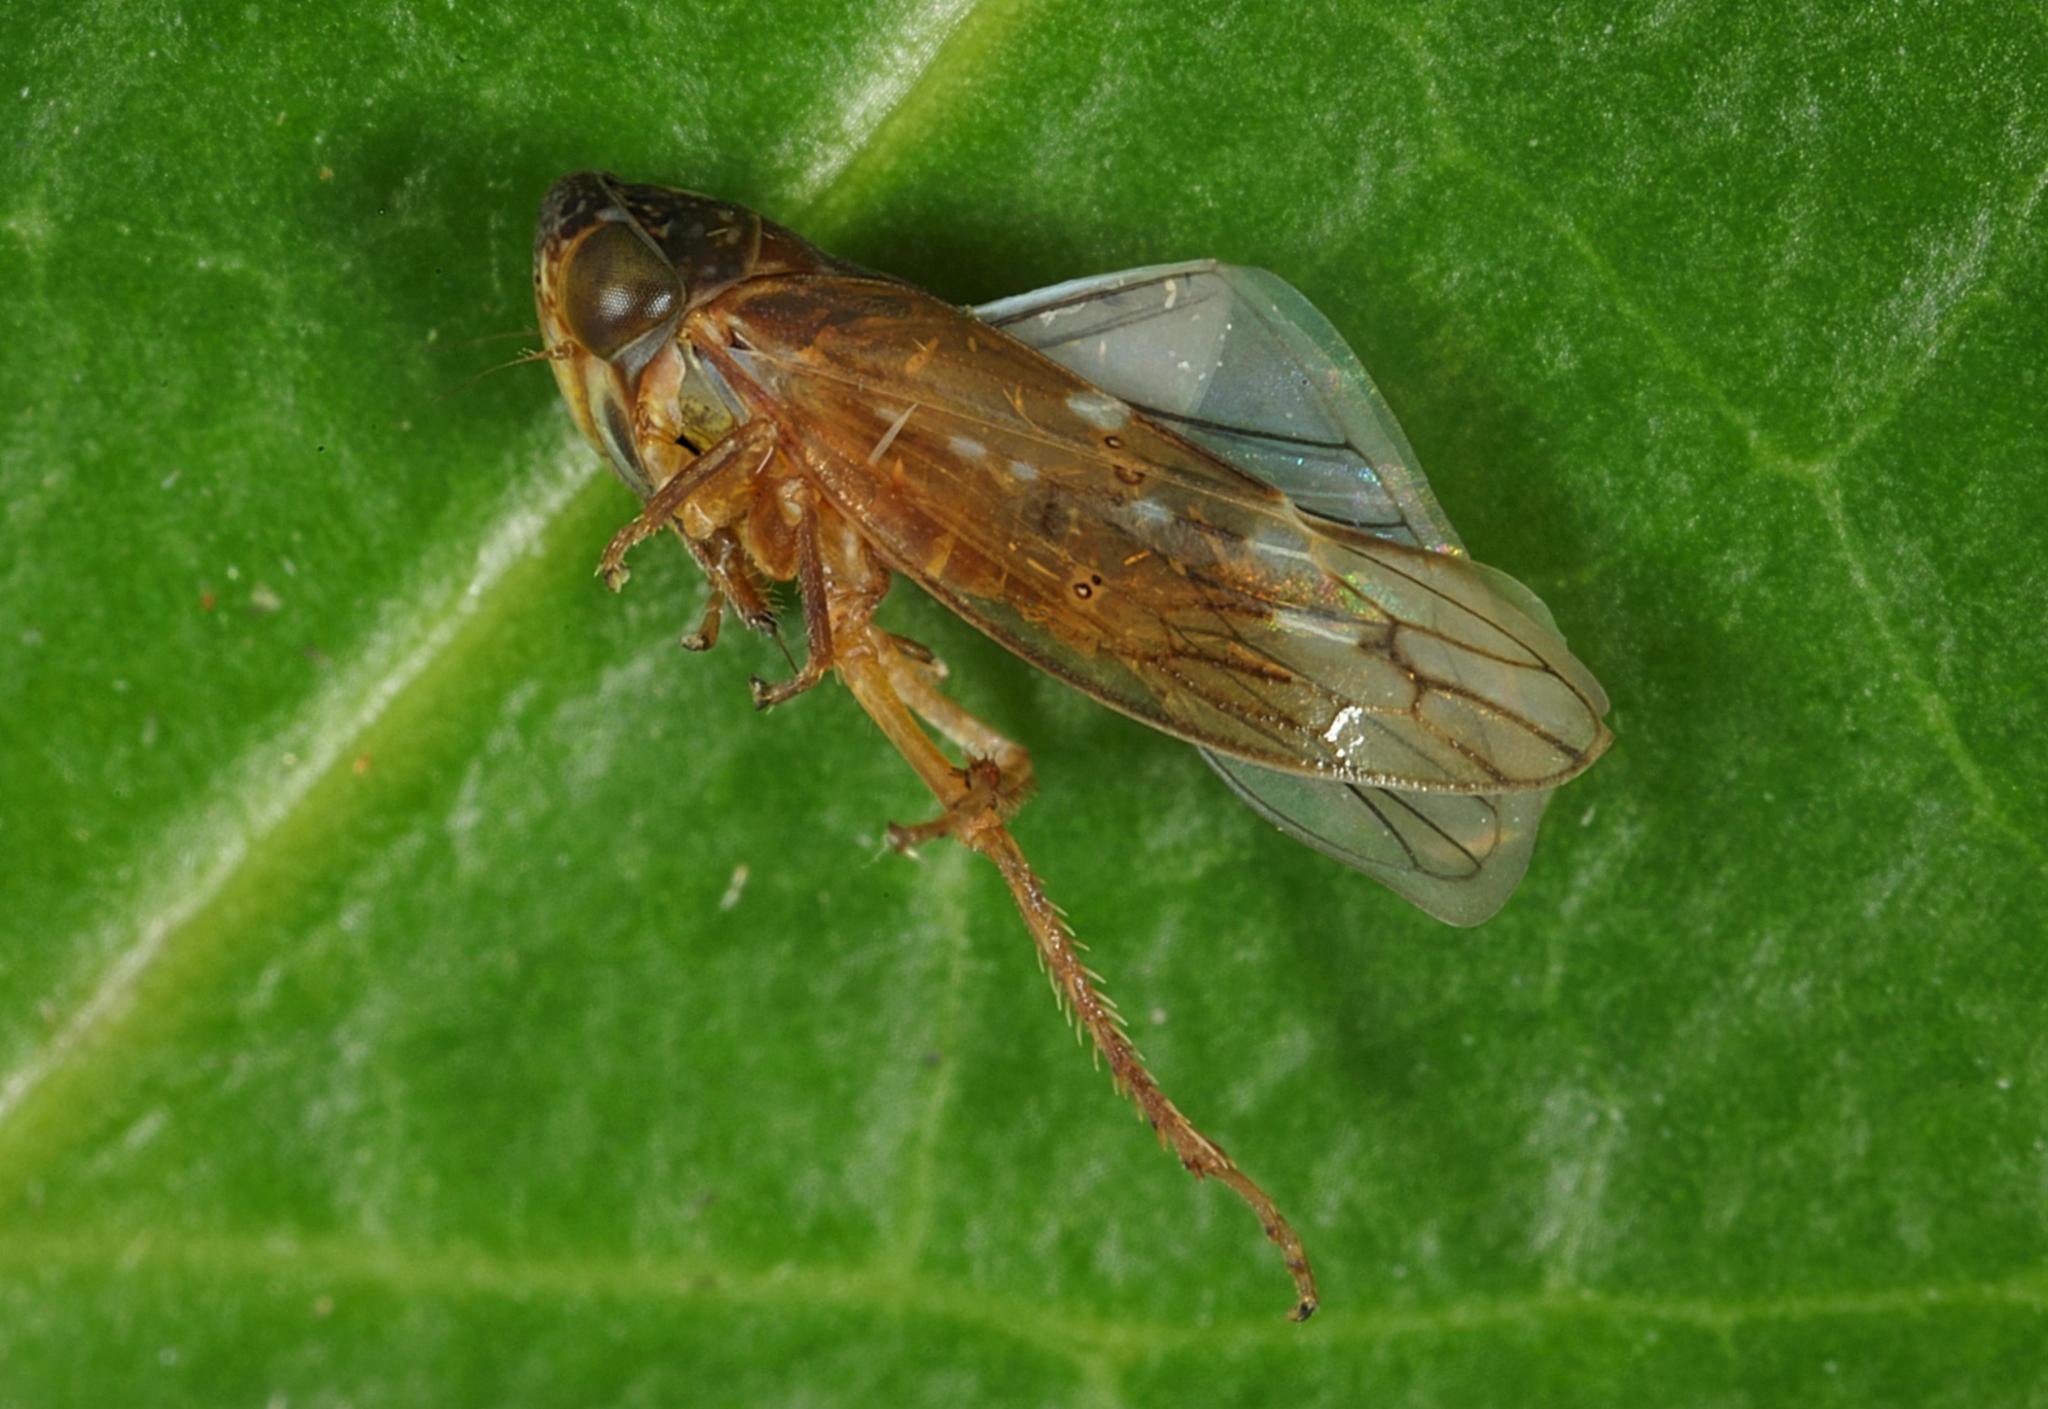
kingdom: Animalia
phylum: Arthropoda
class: Insecta
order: Hemiptera
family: Cicadellidae
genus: Metidiocerus
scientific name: Metidiocerus rutilans
